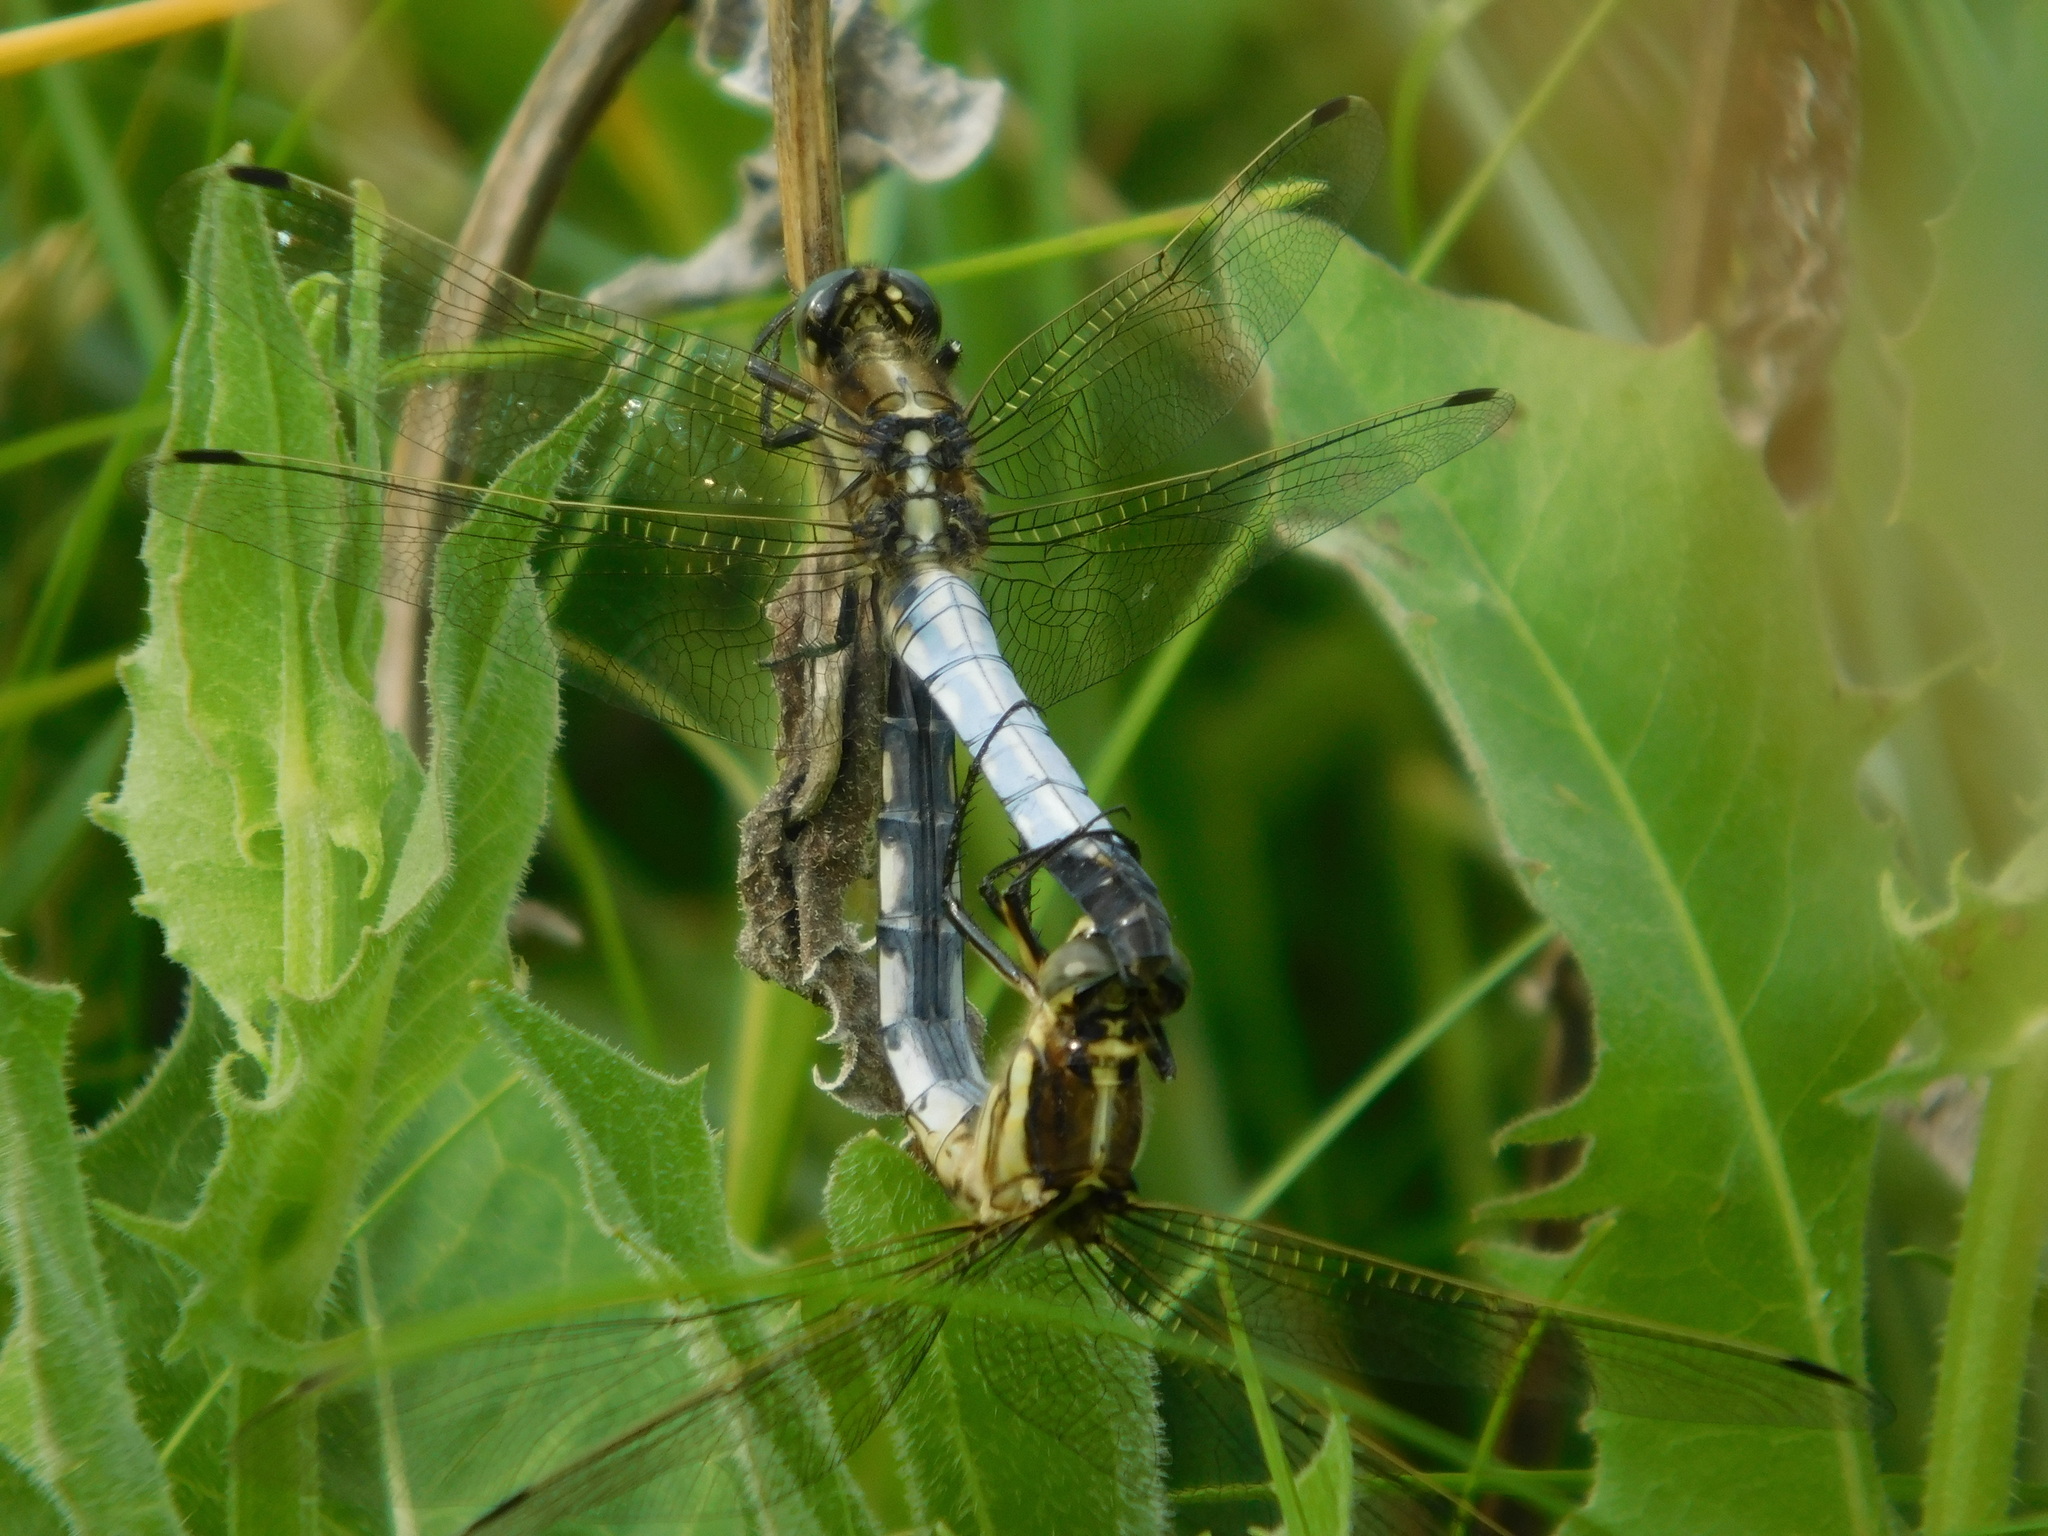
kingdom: Animalia
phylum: Arthropoda
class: Insecta
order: Odonata
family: Libellulidae
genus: Orthetrum
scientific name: Orthetrum albistylum
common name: White-tailed skimmer
